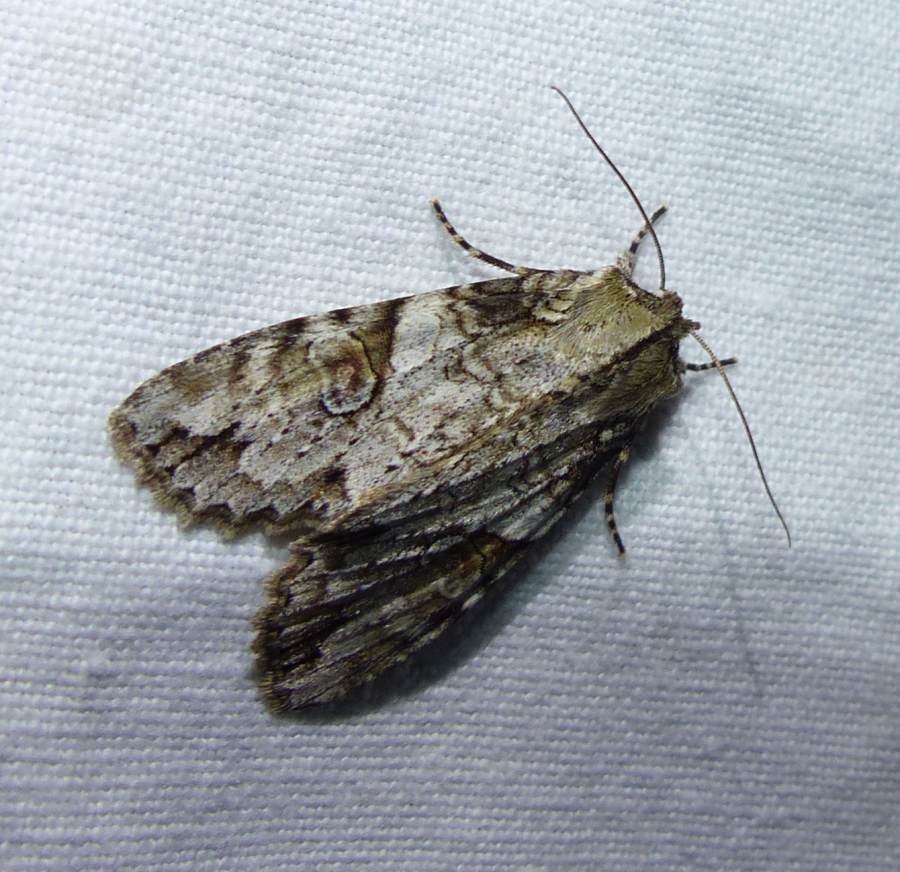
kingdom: Animalia
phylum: Arthropoda
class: Insecta
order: Lepidoptera
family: Noctuidae
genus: Achatia
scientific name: Achatia latex
